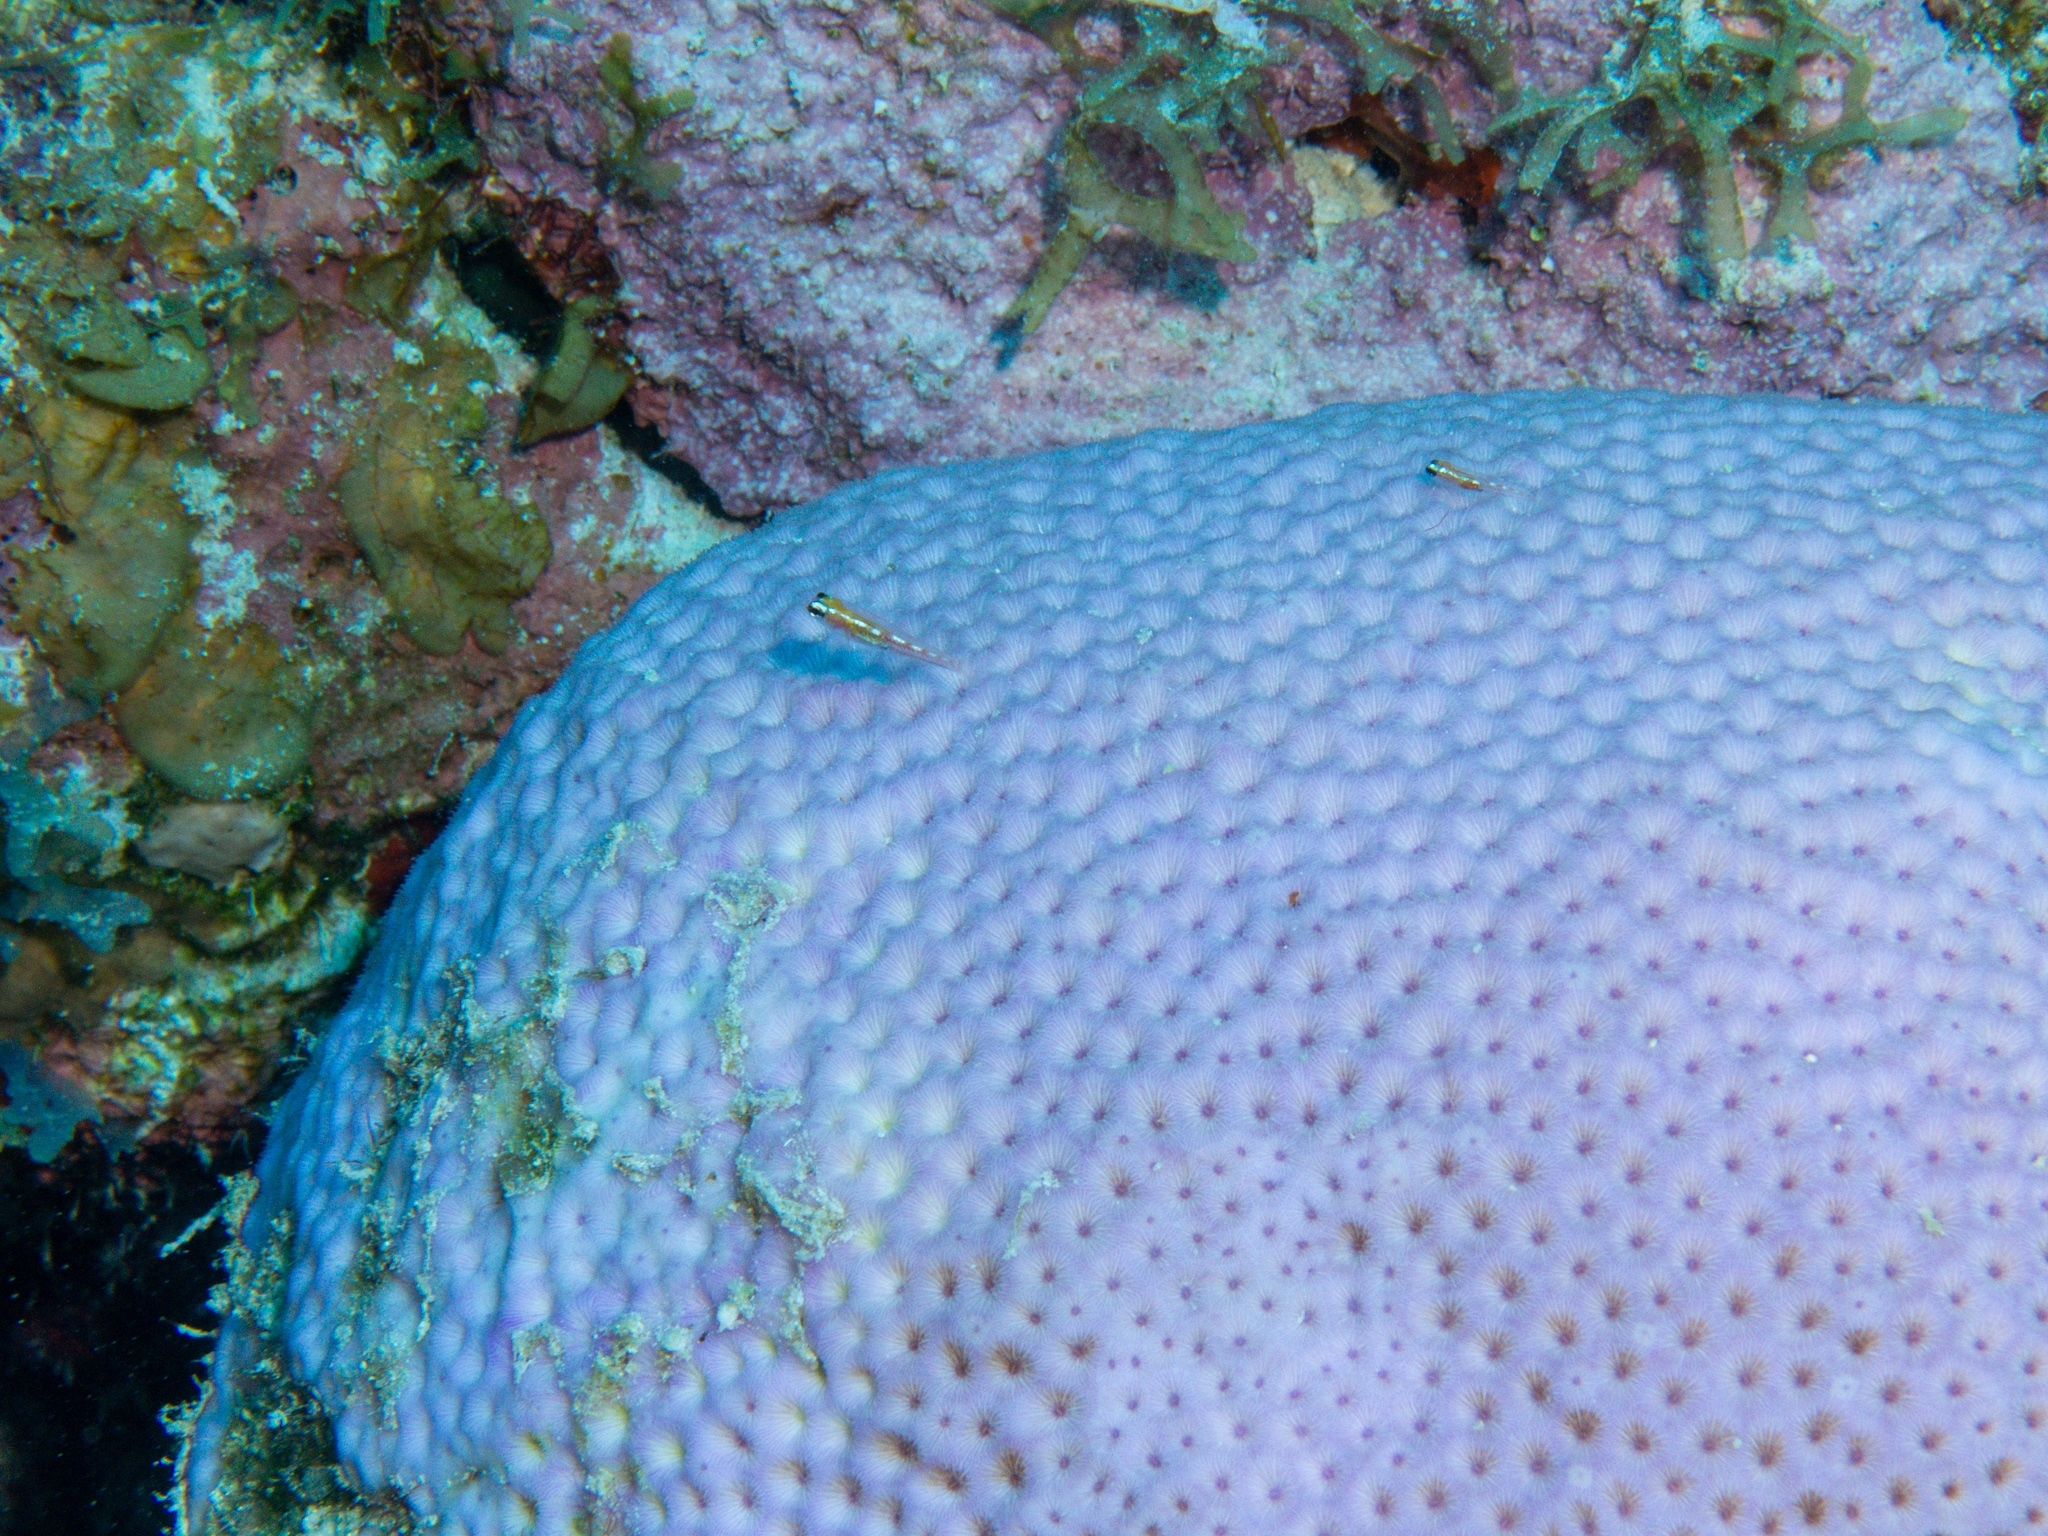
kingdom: Animalia
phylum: Cnidaria
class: Anthozoa
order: Scleractinia
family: Rhizangiidae
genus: Siderastrea
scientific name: Siderastrea siderea
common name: Massive starlet coral
